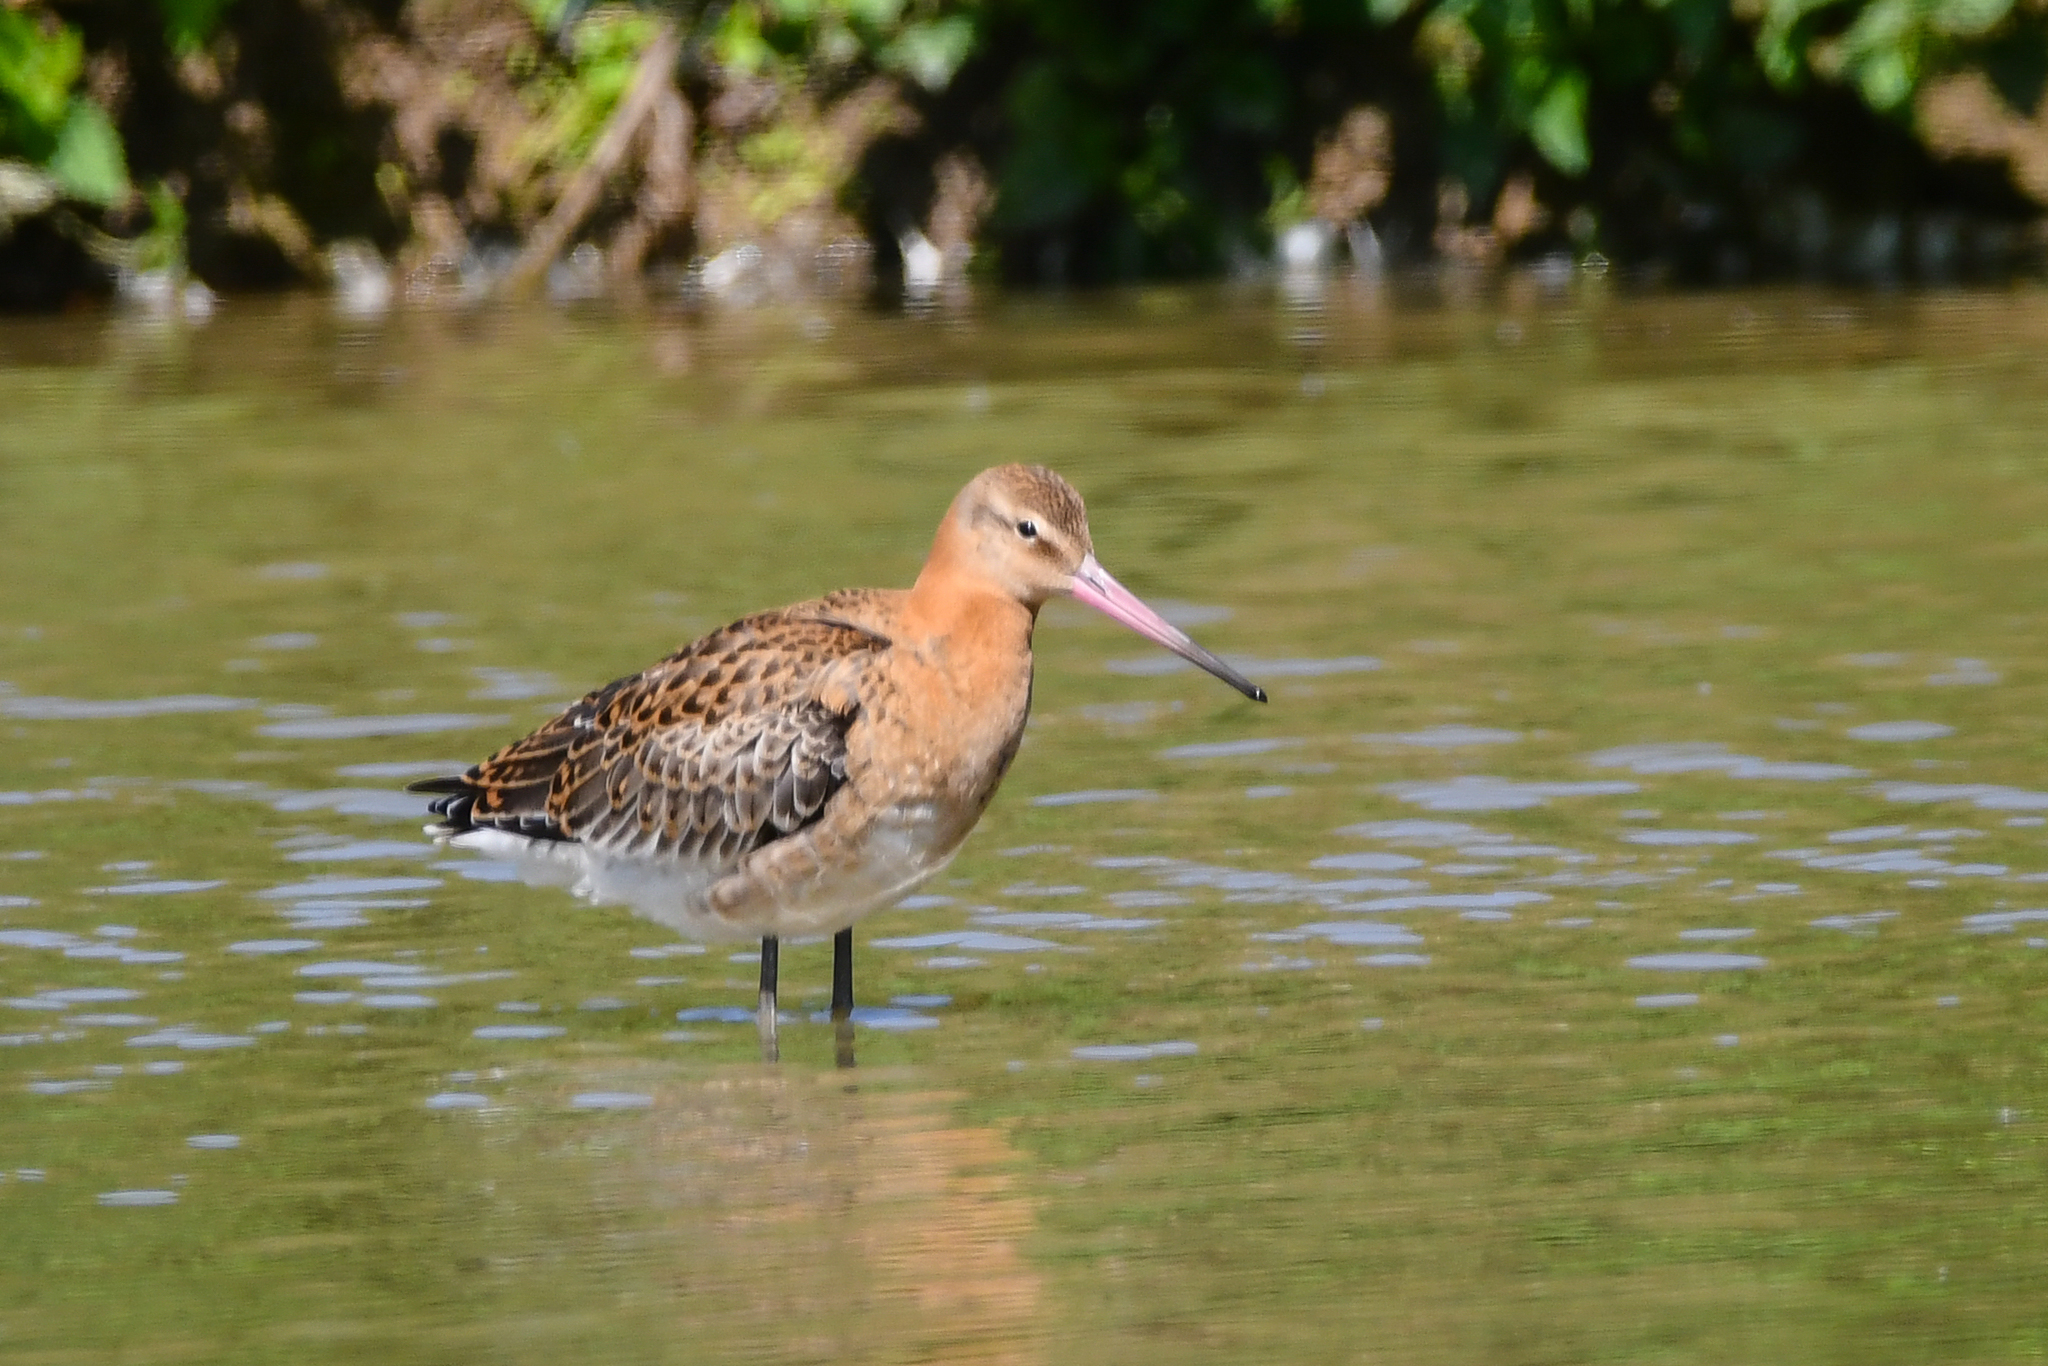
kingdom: Animalia
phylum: Chordata
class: Aves
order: Charadriiformes
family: Scolopacidae
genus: Limosa
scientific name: Limosa limosa
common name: Black-tailed godwit
